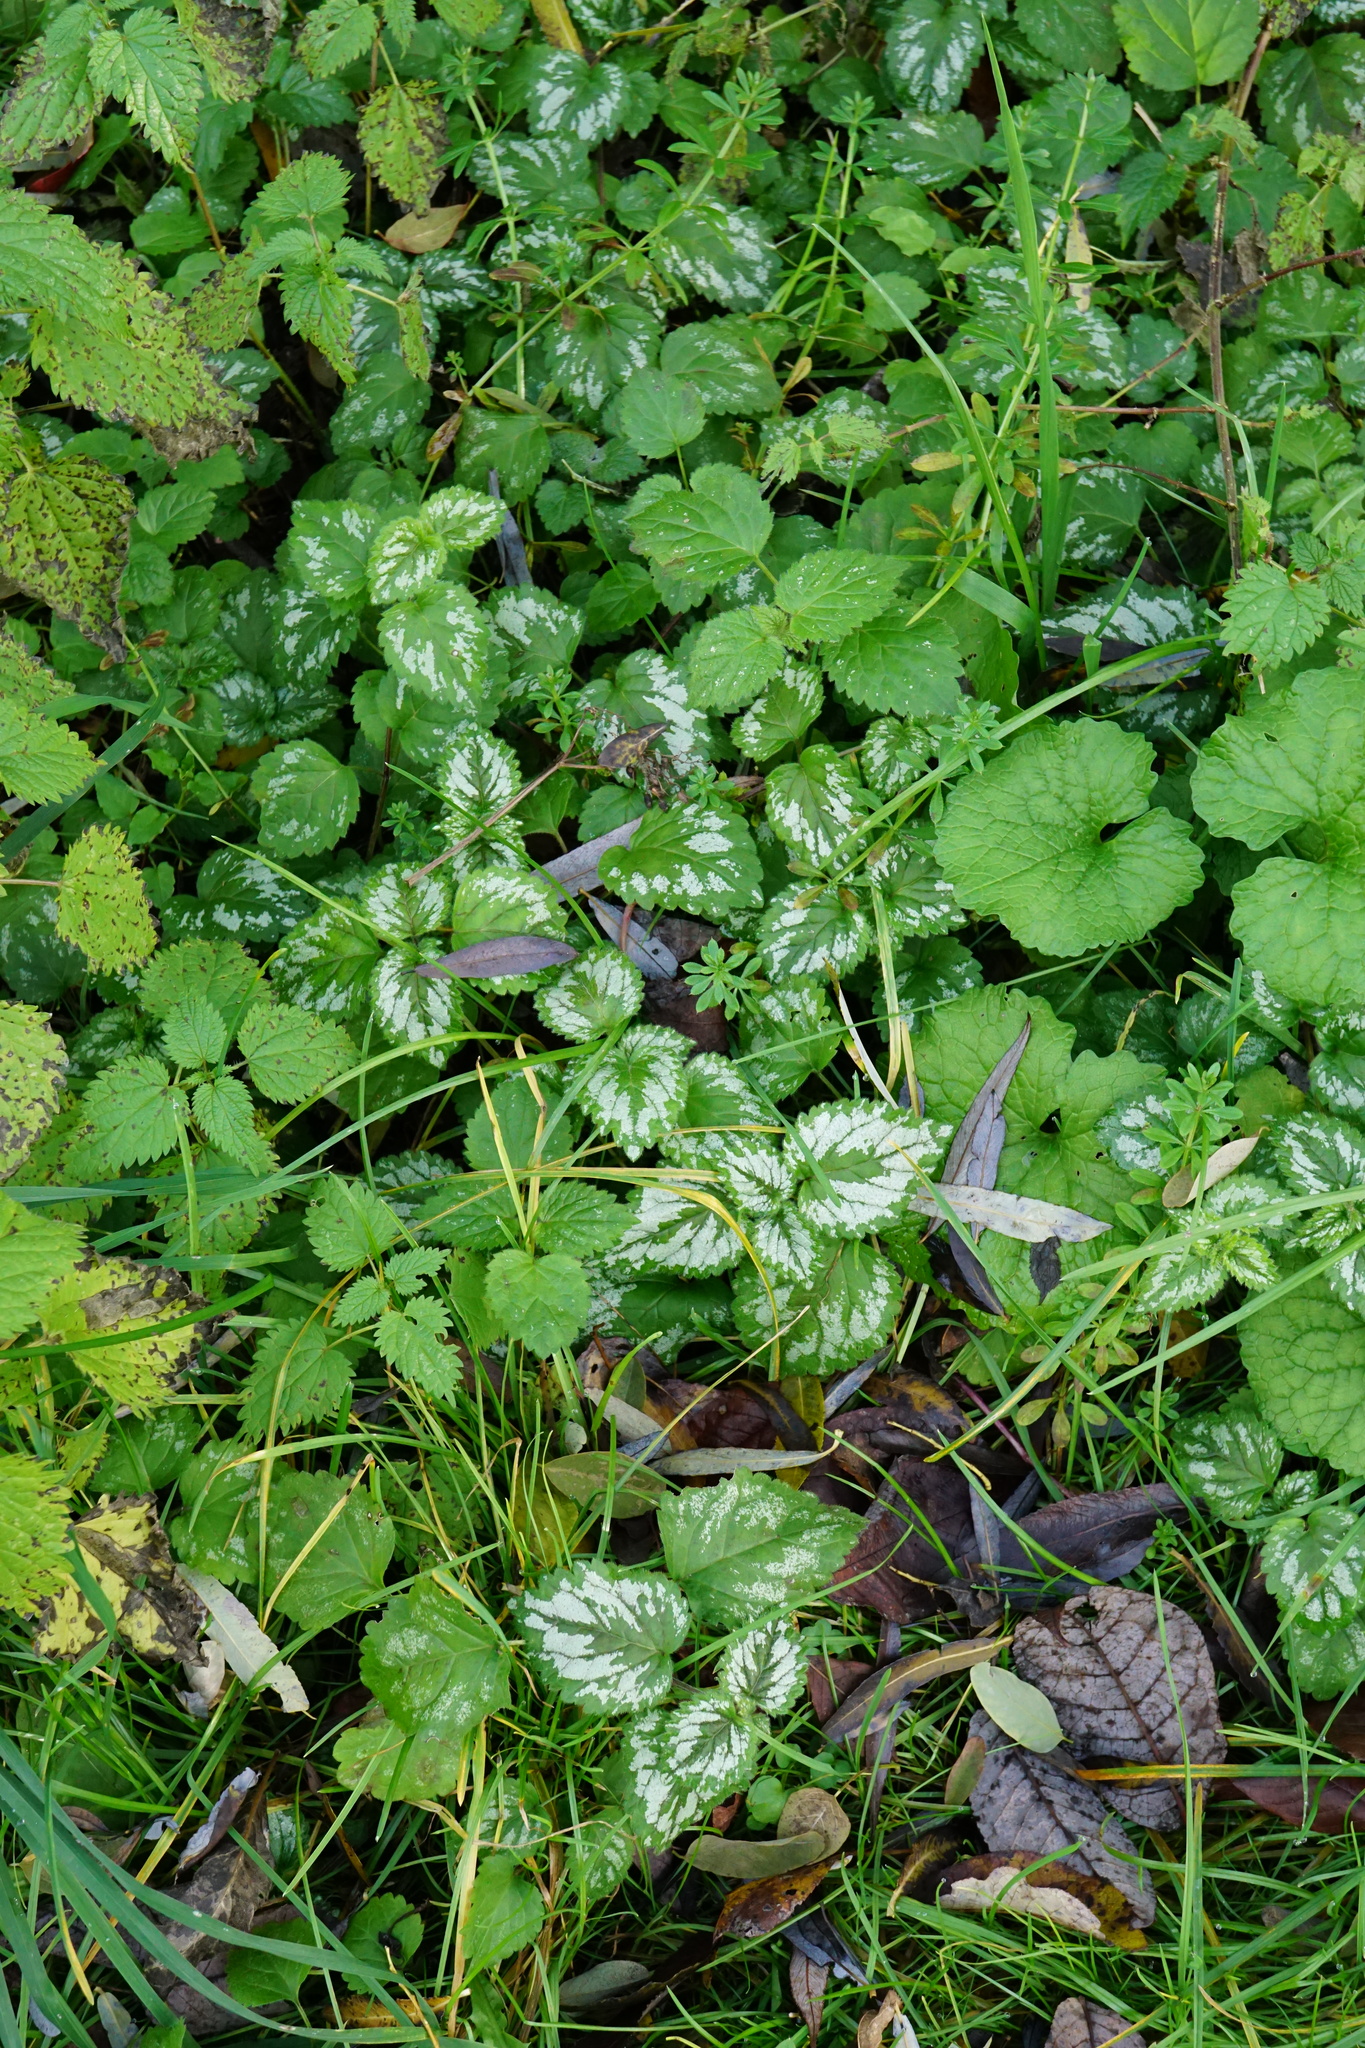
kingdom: Plantae
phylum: Tracheophyta
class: Magnoliopsida
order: Lamiales
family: Lamiaceae
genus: Lamium
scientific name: Lamium galeobdolon
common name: Yellow archangel
